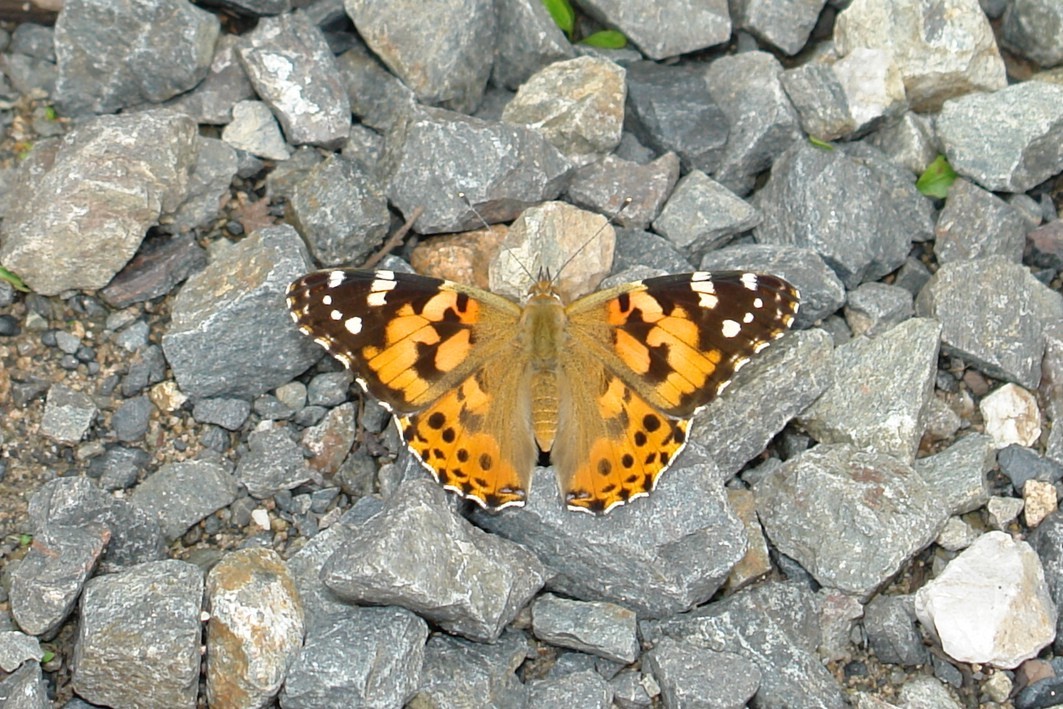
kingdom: Animalia
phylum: Arthropoda
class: Insecta
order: Lepidoptera
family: Nymphalidae
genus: Vanessa
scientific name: Vanessa cardui
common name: Painted lady
